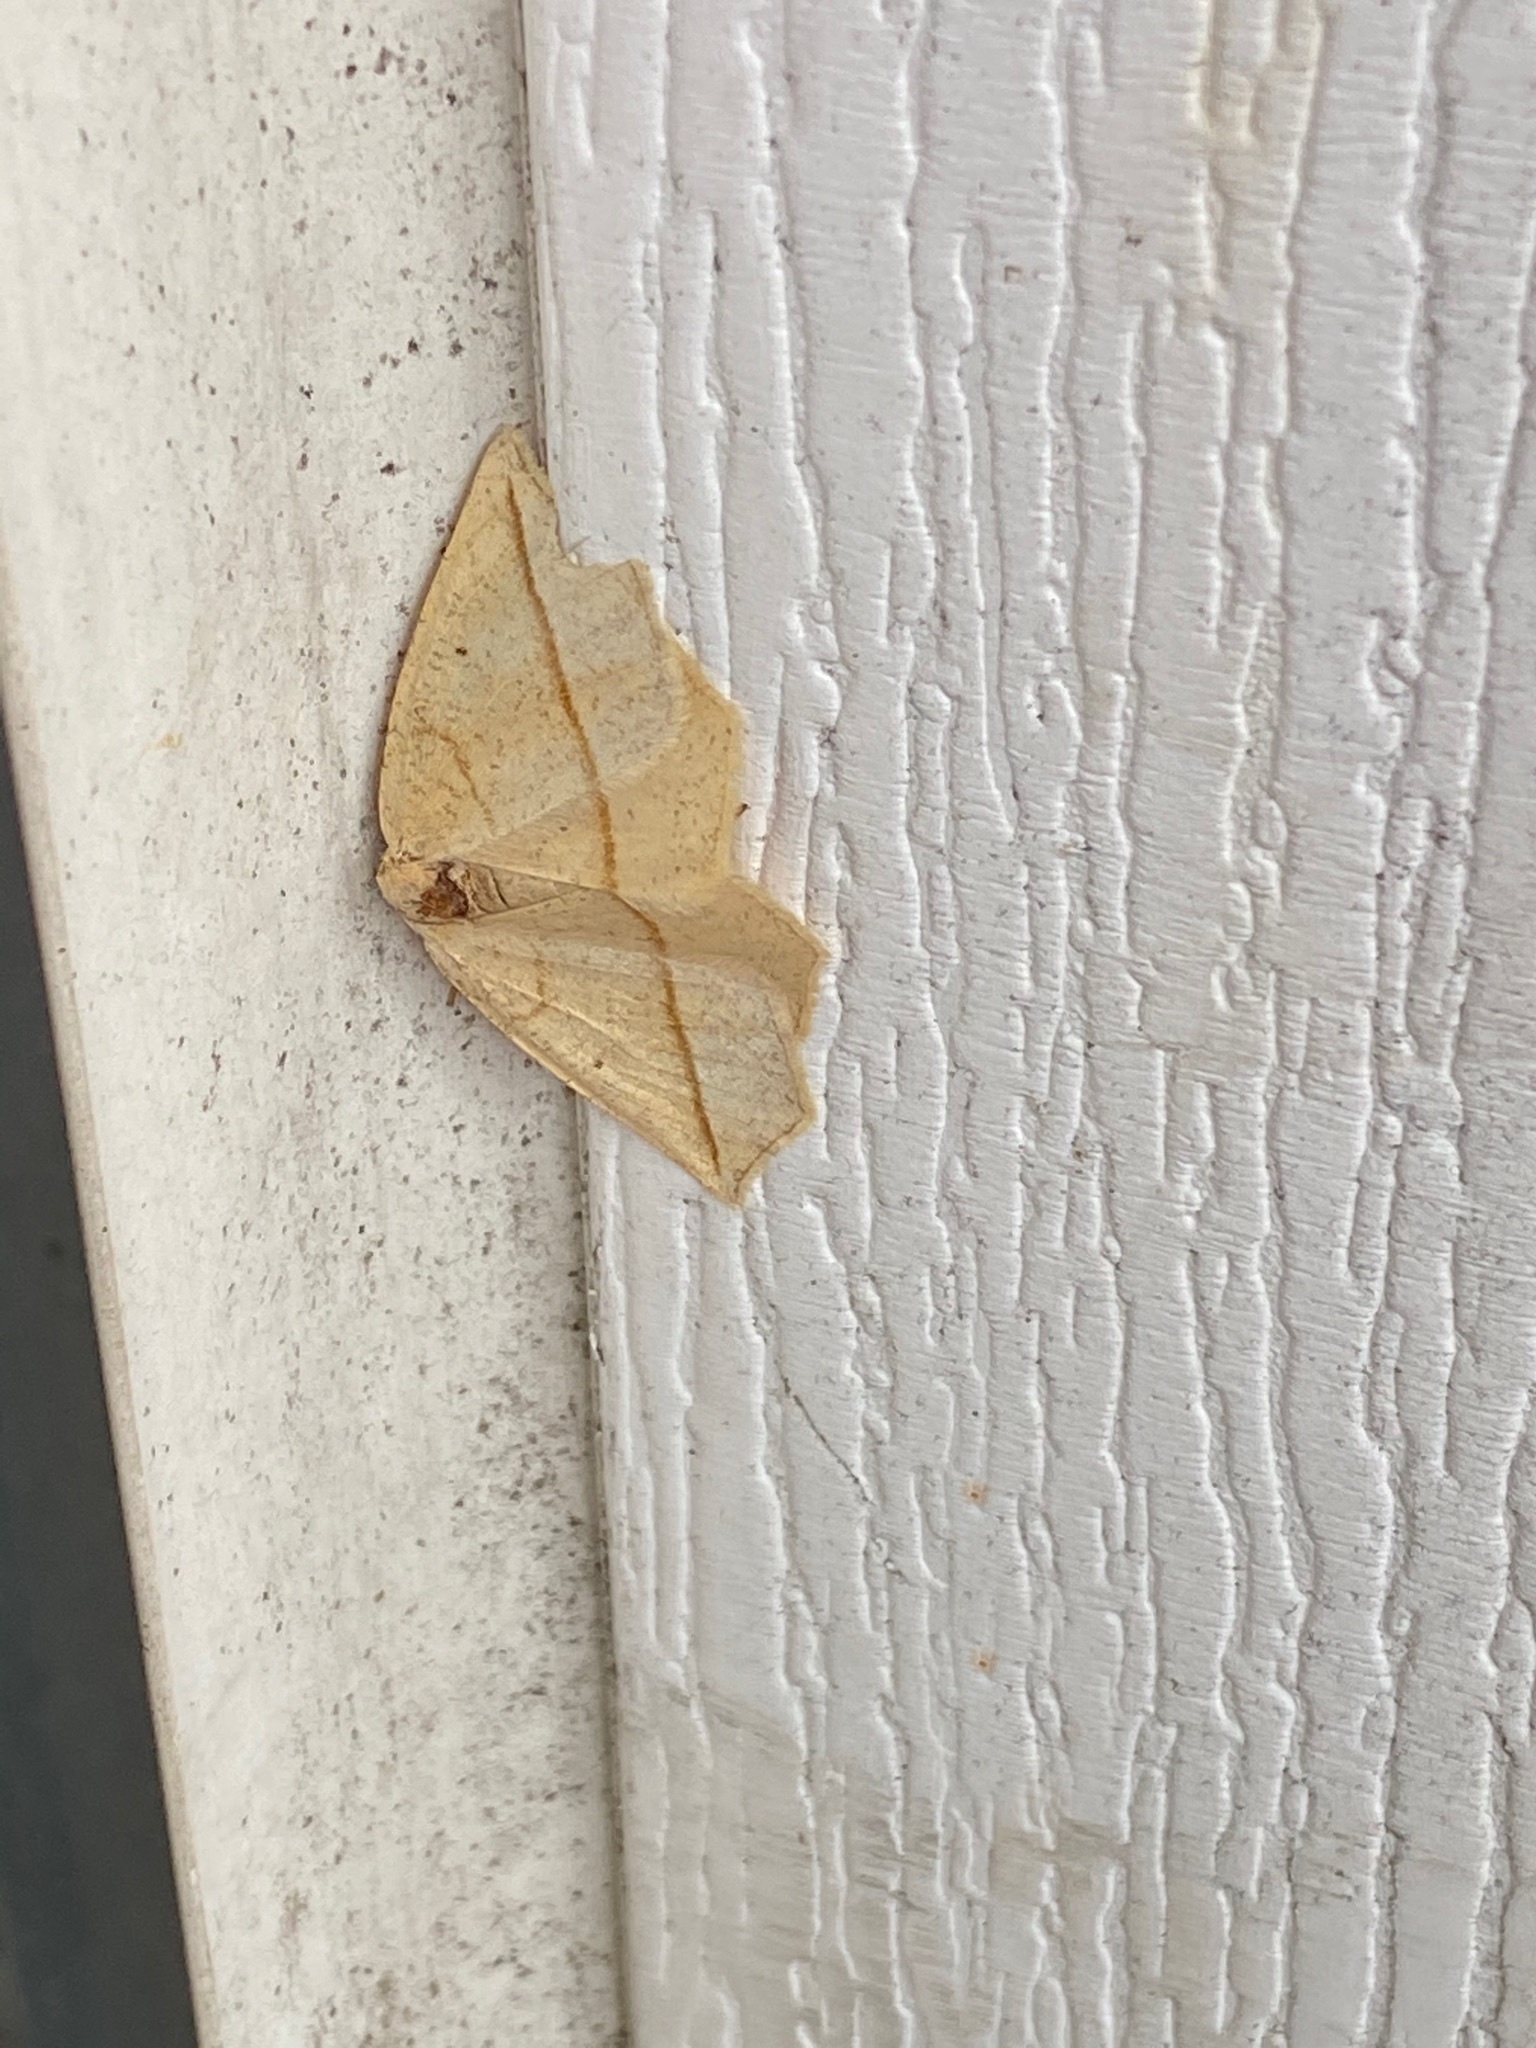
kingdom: Animalia
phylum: Arthropoda
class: Insecta
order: Lepidoptera
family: Geometridae
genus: Eusarca
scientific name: Eusarca confusaria
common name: Confused eusarca
